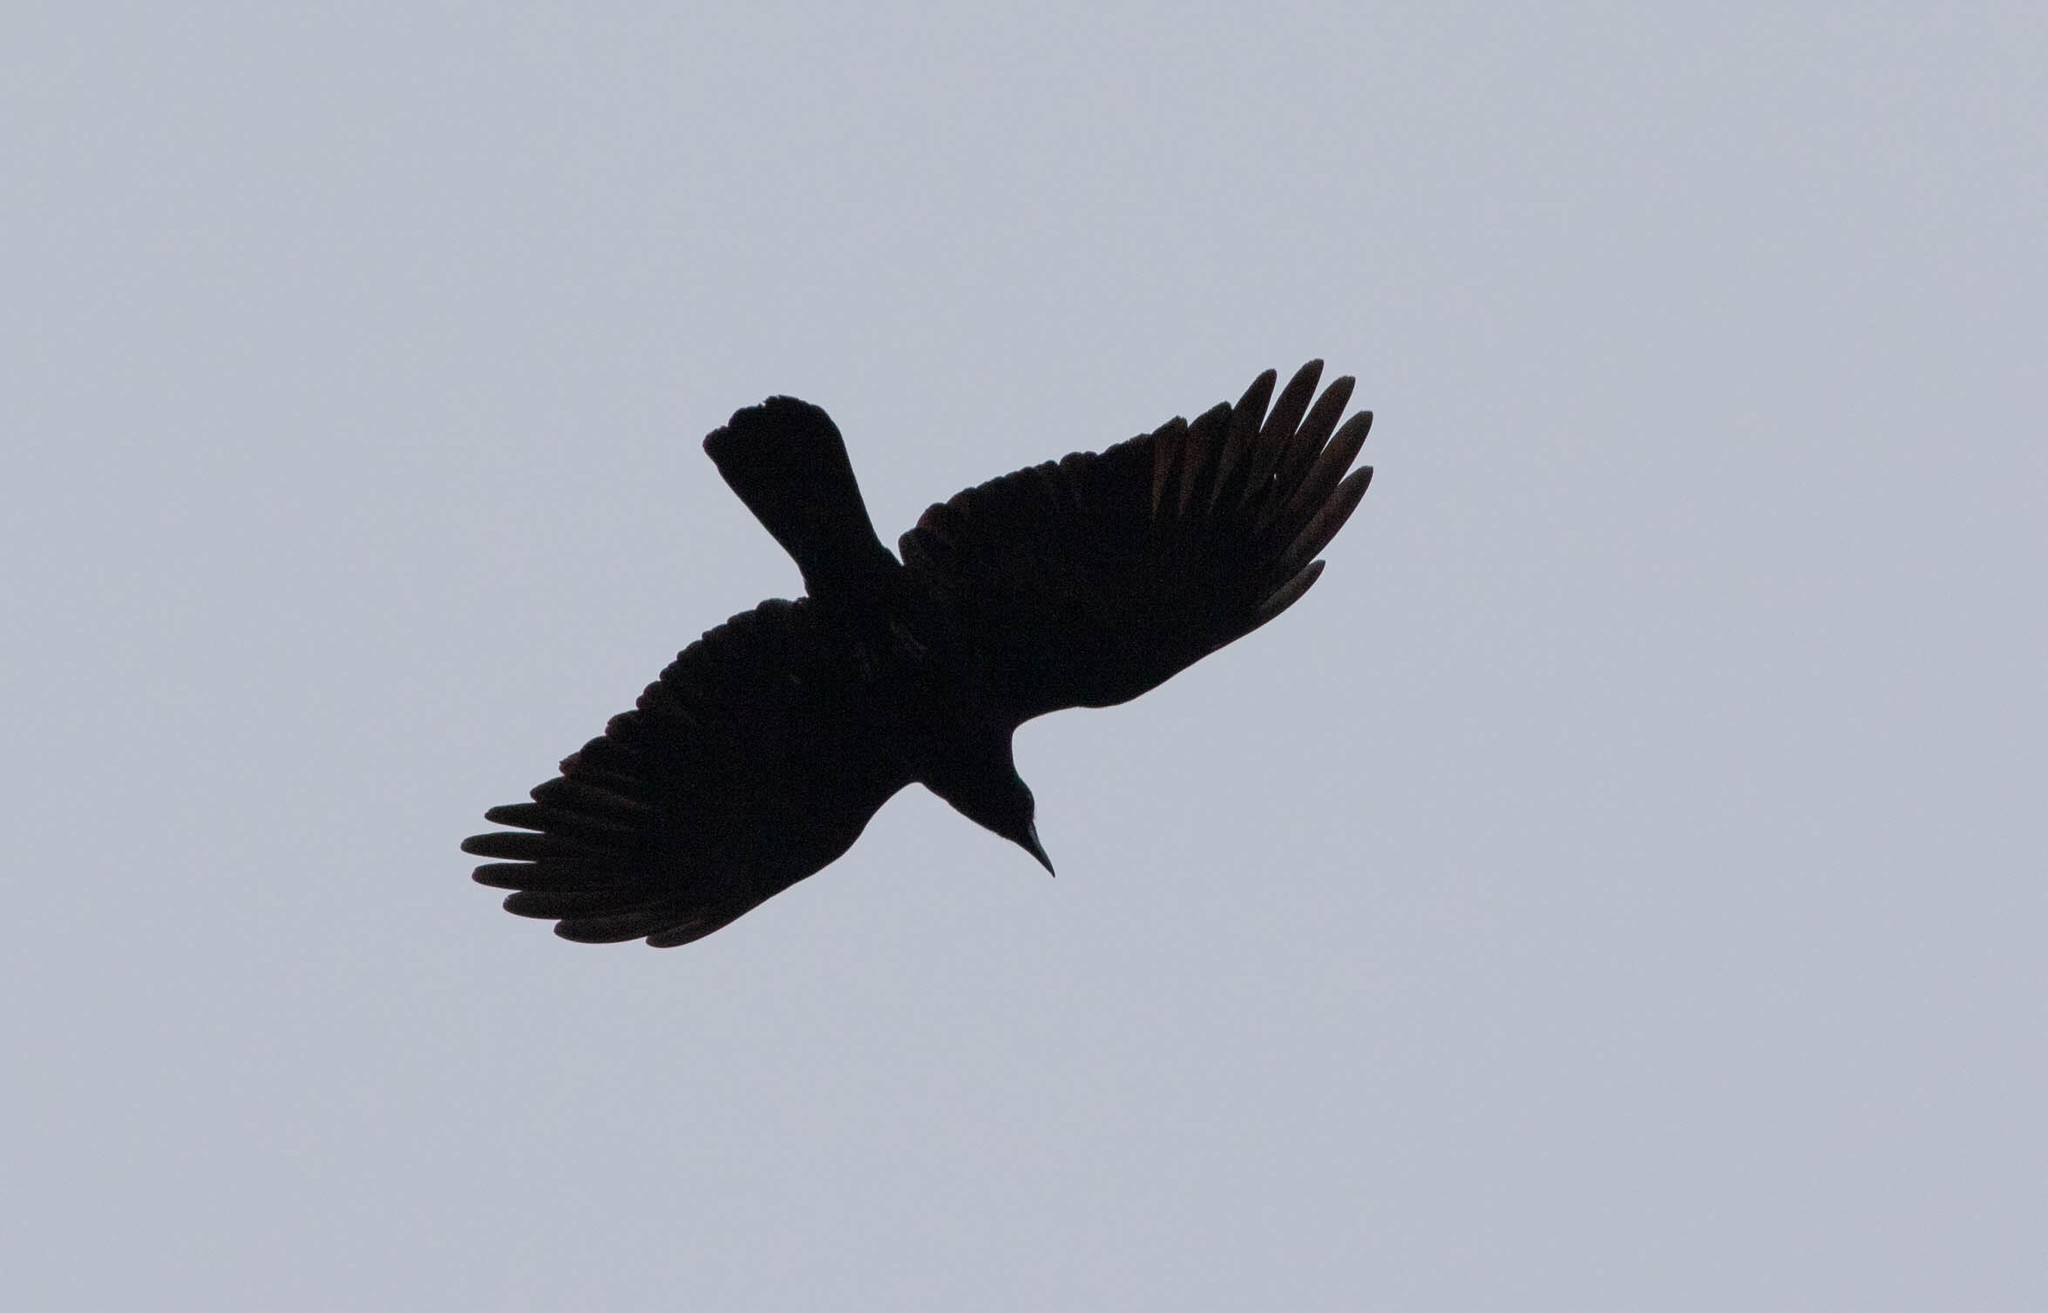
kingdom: Animalia
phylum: Chordata
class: Aves
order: Passeriformes
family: Corvidae
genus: Corvus
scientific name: Corvus brachyrhynchos
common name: American crow
